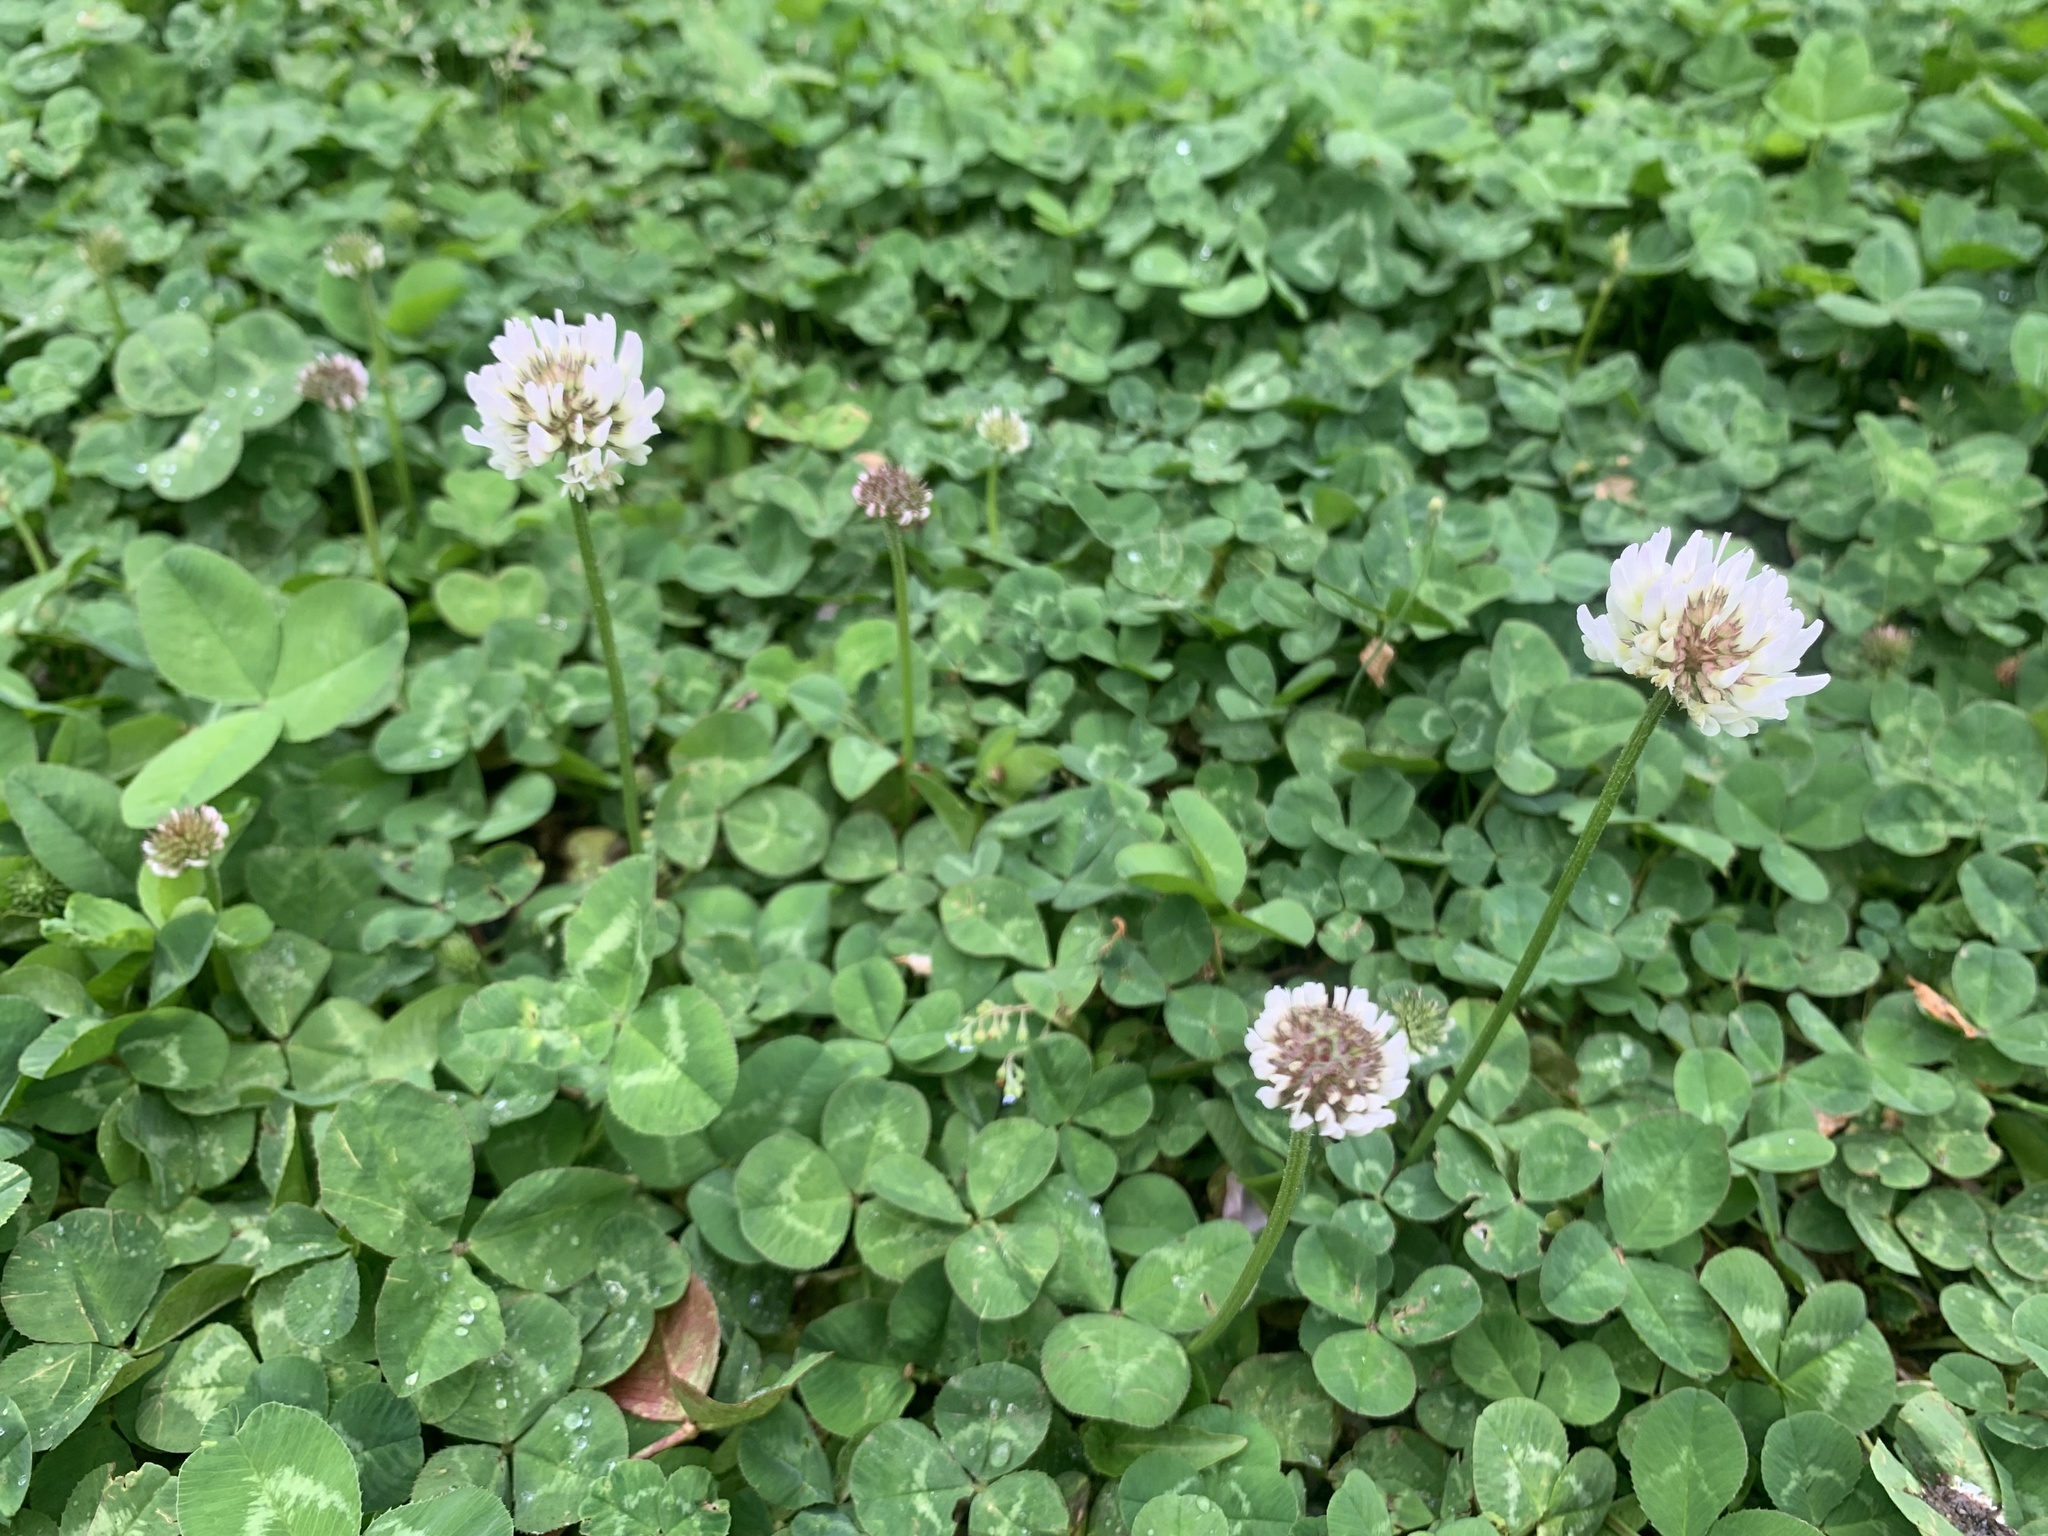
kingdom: Plantae
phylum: Tracheophyta
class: Magnoliopsida
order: Fabales
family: Fabaceae
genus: Trifolium
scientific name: Trifolium repens
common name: White clover
